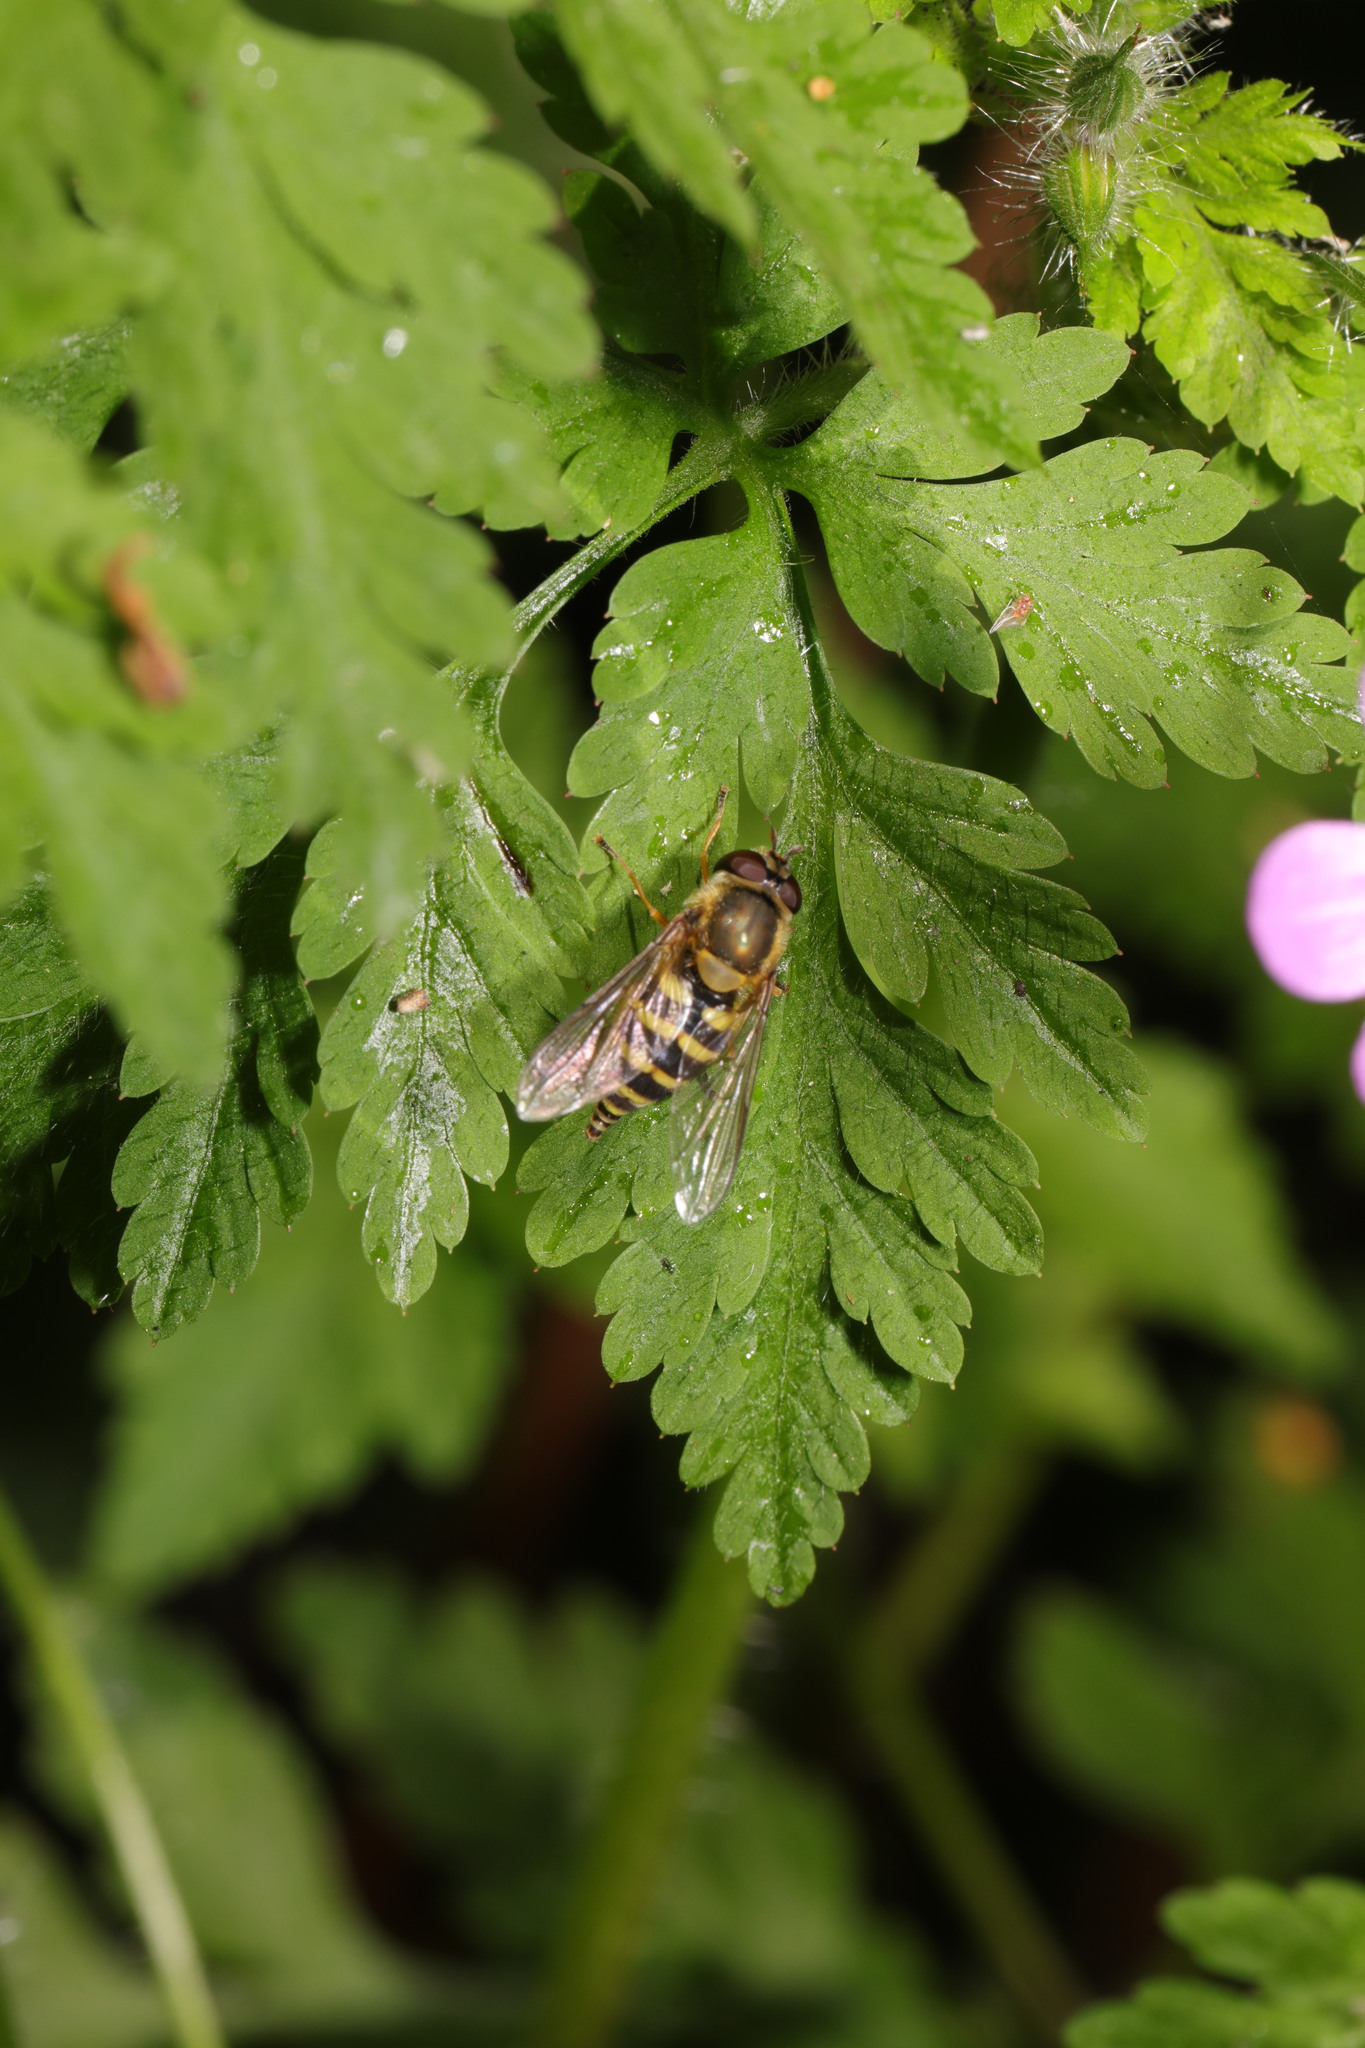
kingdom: Animalia
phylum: Arthropoda
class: Insecta
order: Diptera
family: Syrphidae
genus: Syrphus
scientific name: Syrphus
